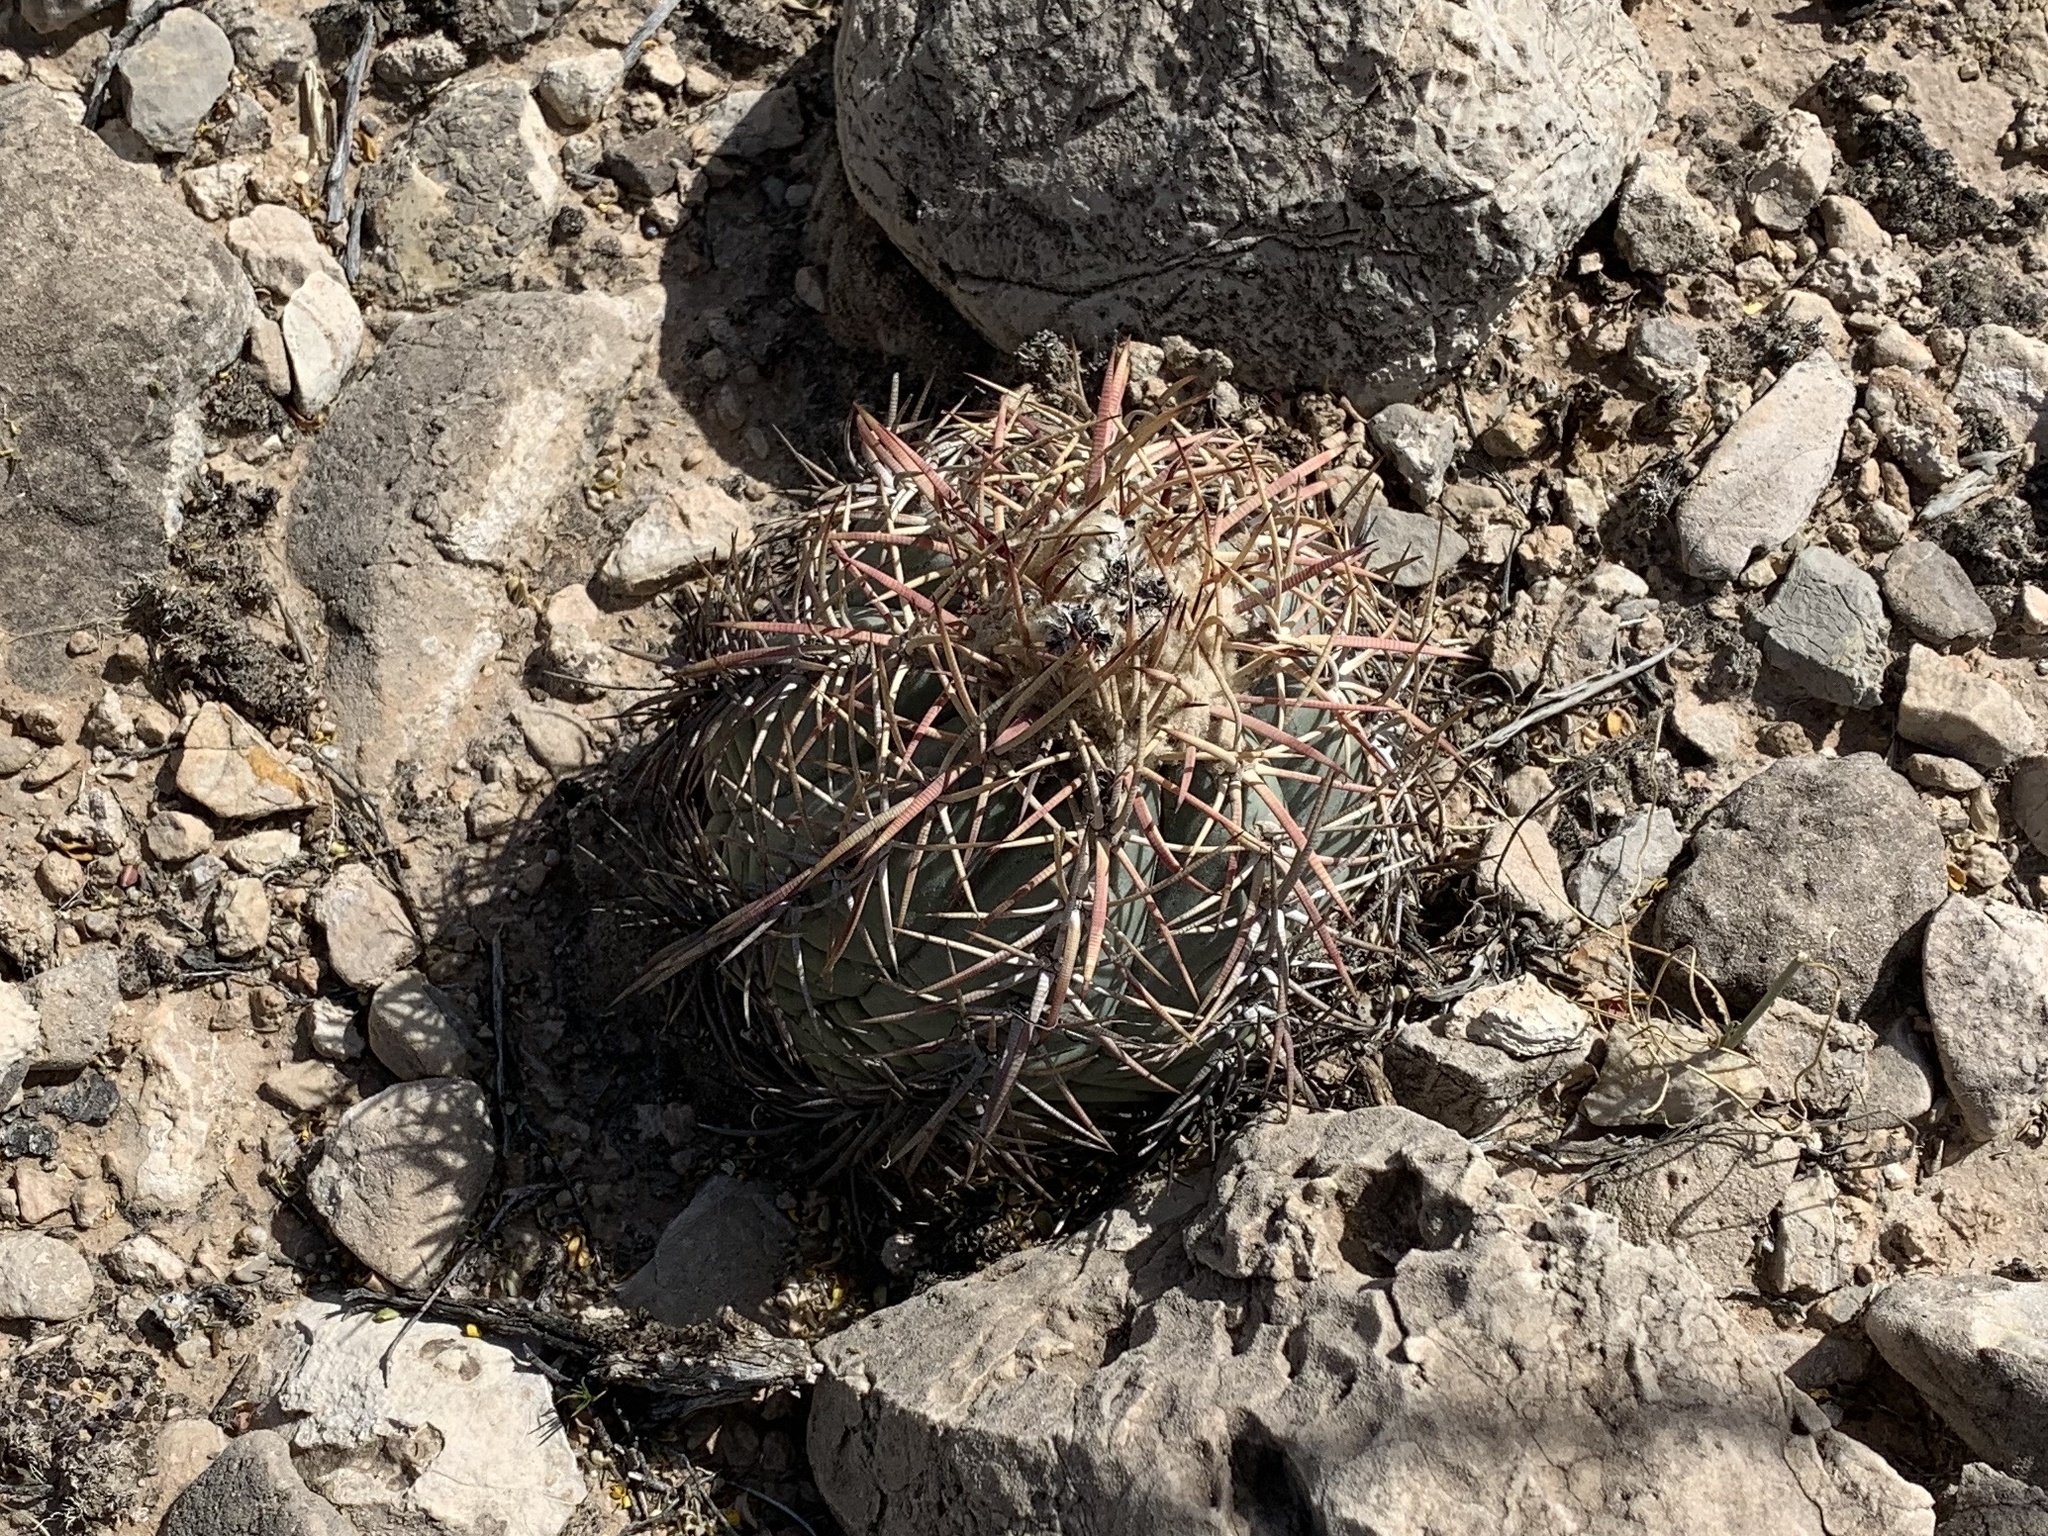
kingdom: Plantae
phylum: Tracheophyta
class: Magnoliopsida
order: Caryophyllales
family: Cactaceae
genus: Echinocactus
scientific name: Echinocactus horizonthalonius
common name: Devilshead
